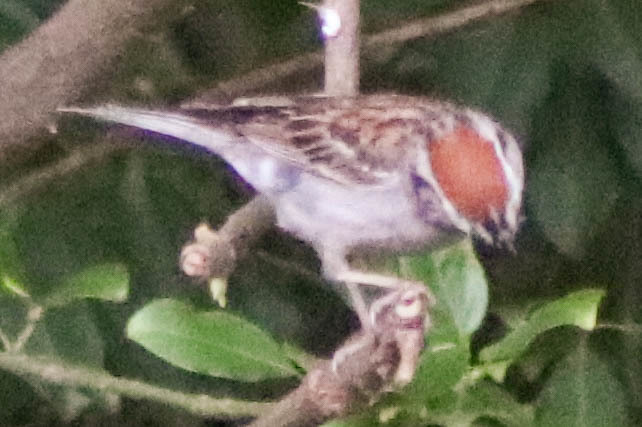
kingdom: Animalia
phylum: Chordata
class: Aves
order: Passeriformes
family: Passerellidae
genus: Spizella
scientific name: Spizella passerina
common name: Chipping sparrow
